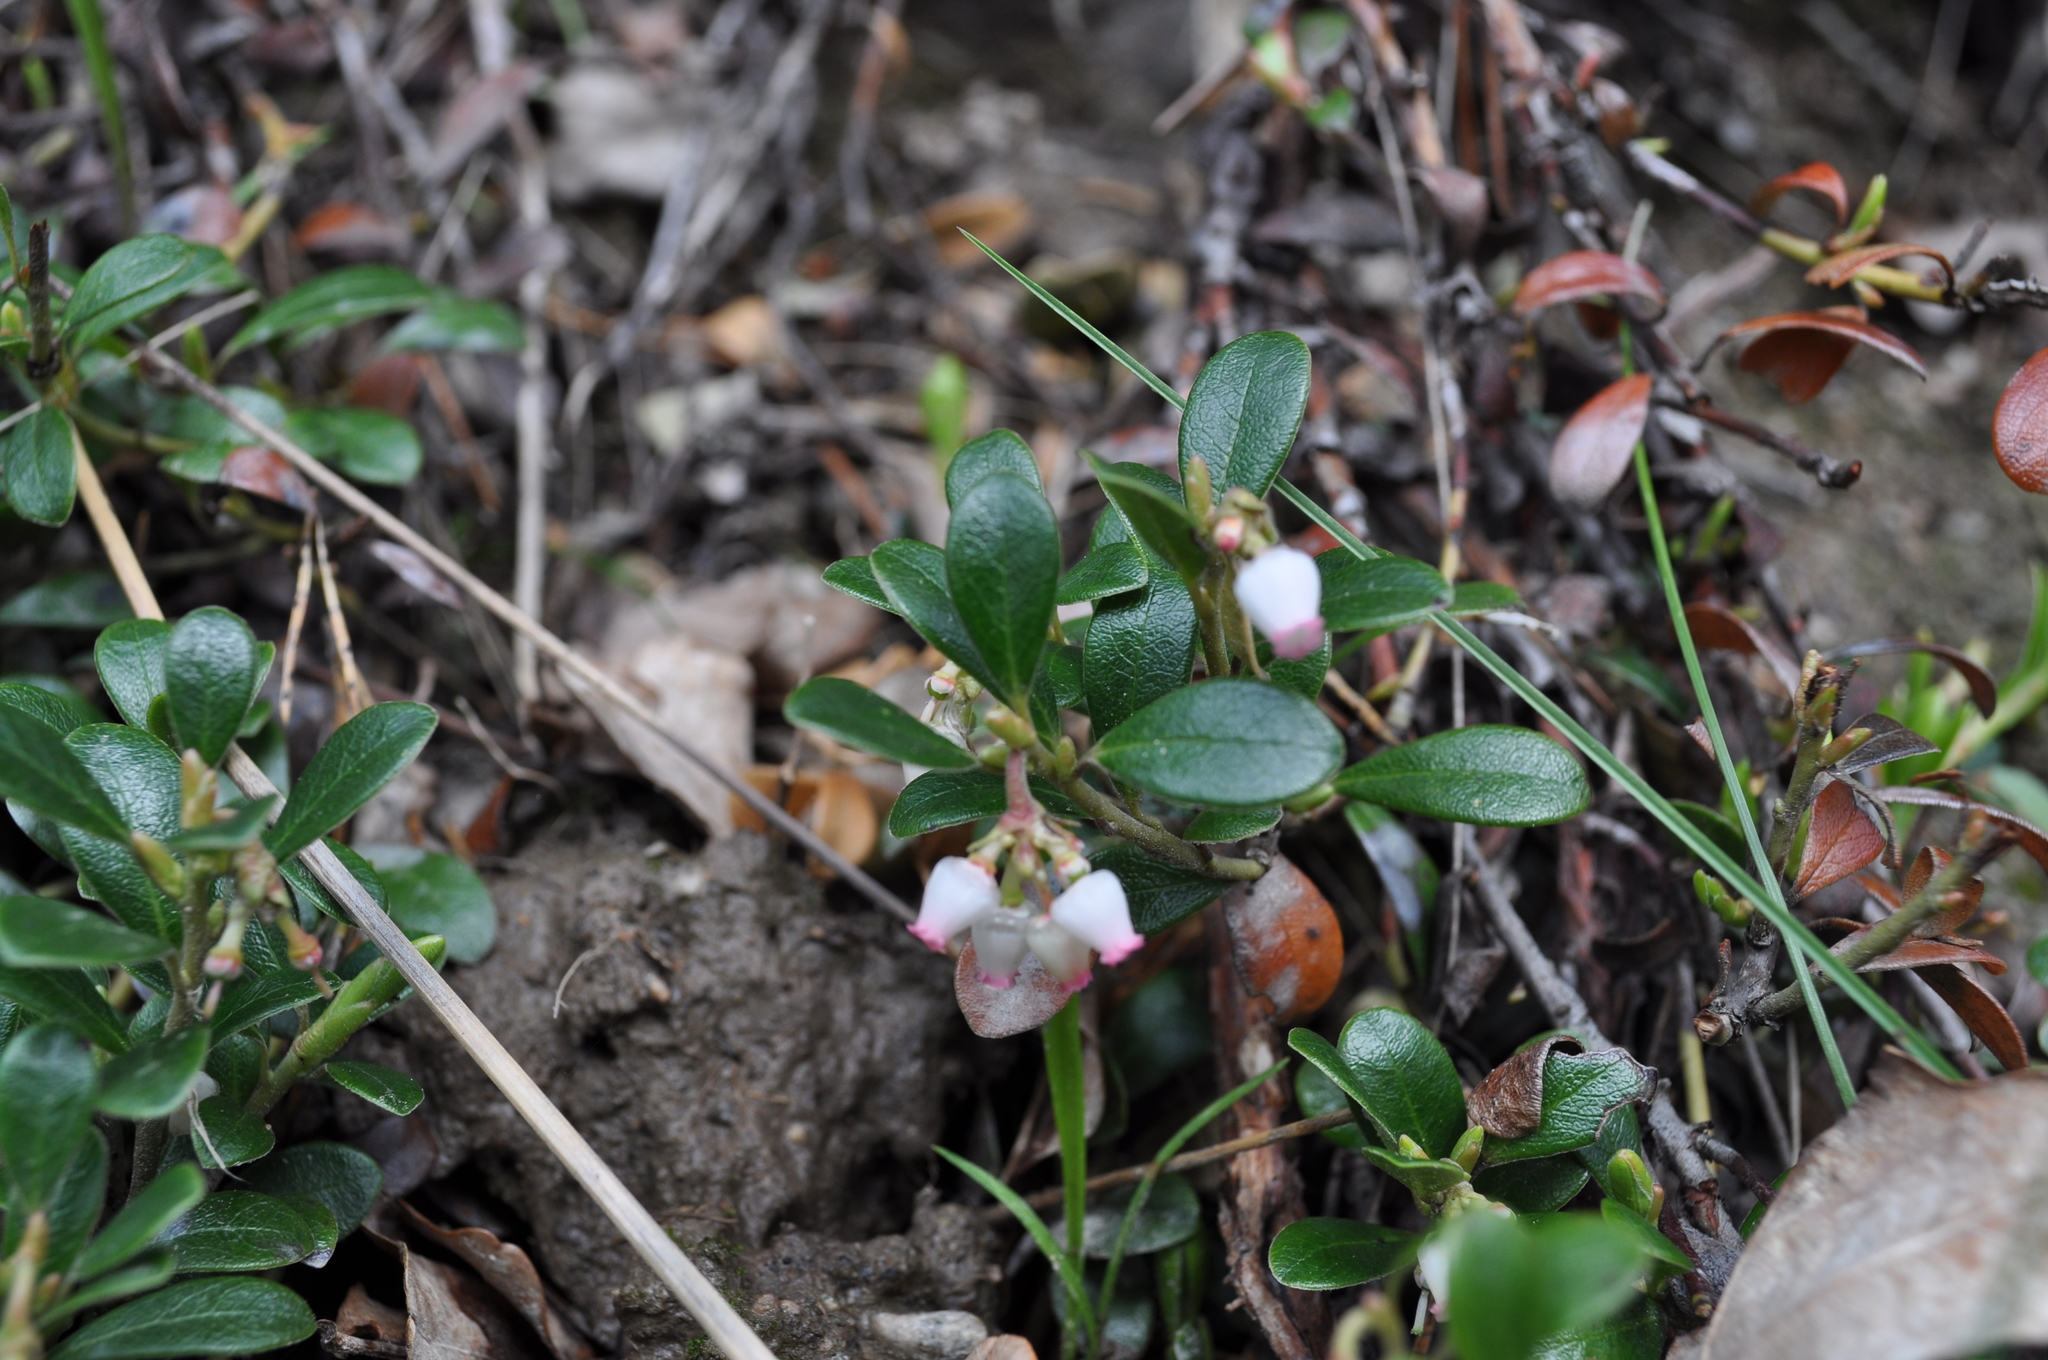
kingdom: Plantae
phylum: Tracheophyta
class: Magnoliopsida
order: Ericales
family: Ericaceae
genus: Vaccinium
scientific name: Vaccinium vitis-idaea
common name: Cowberry
